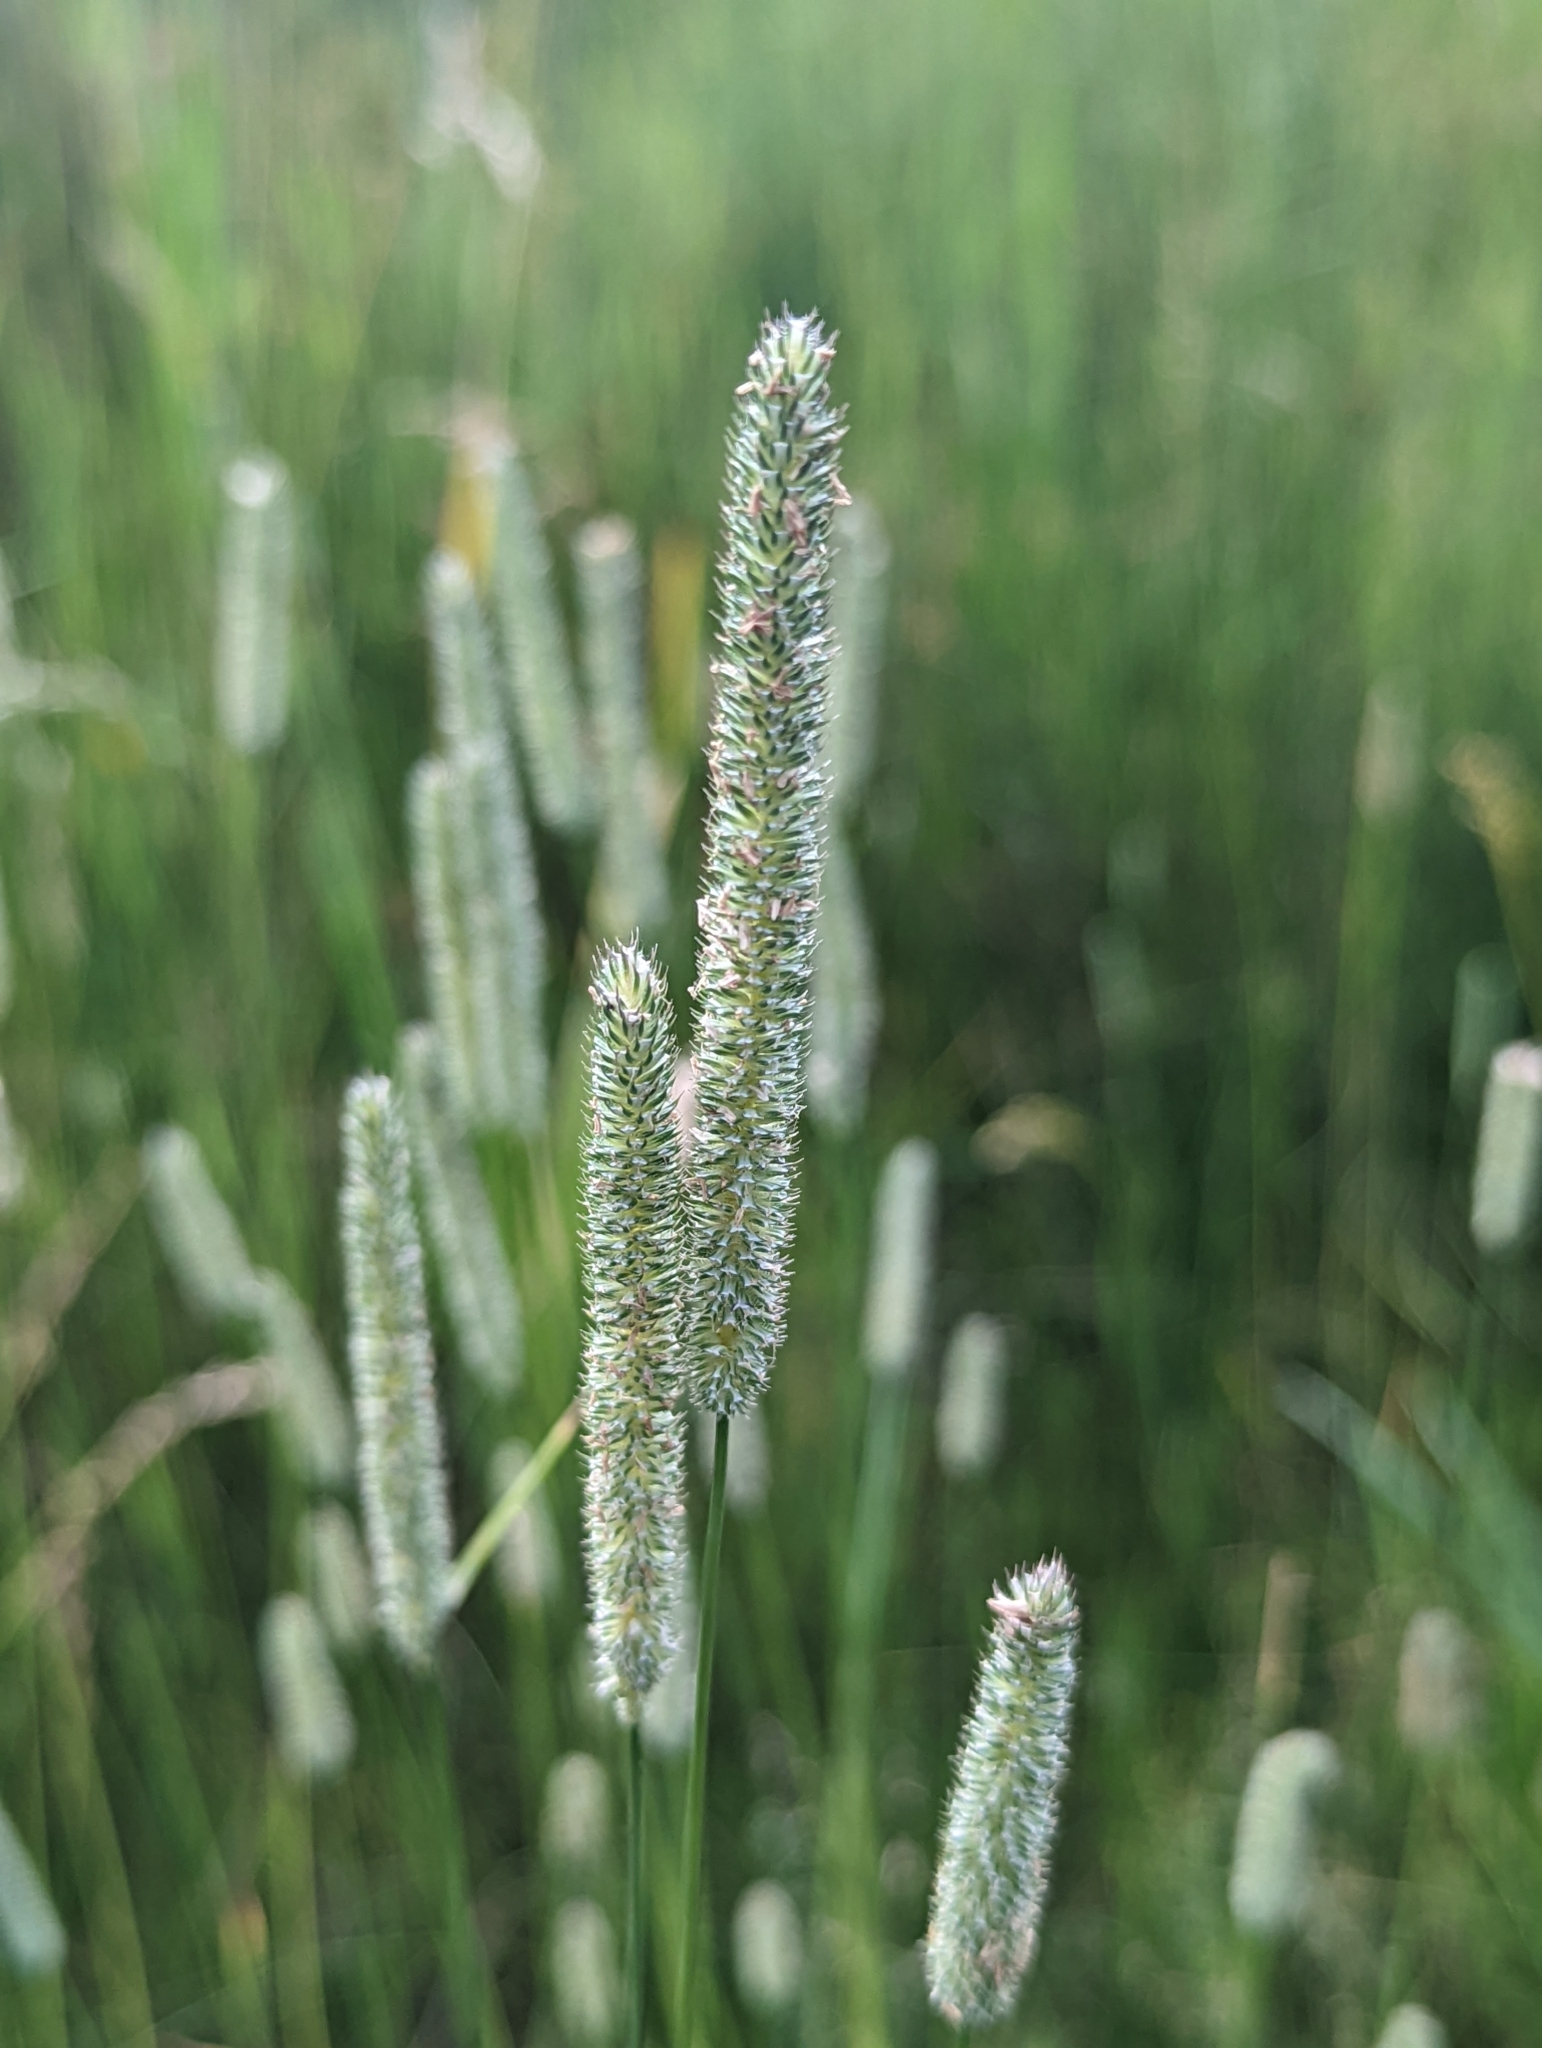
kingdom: Plantae
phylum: Tracheophyta
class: Liliopsida
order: Poales
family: Poaceae
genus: Phleum
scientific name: Phleum pratense
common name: Timothy grass
